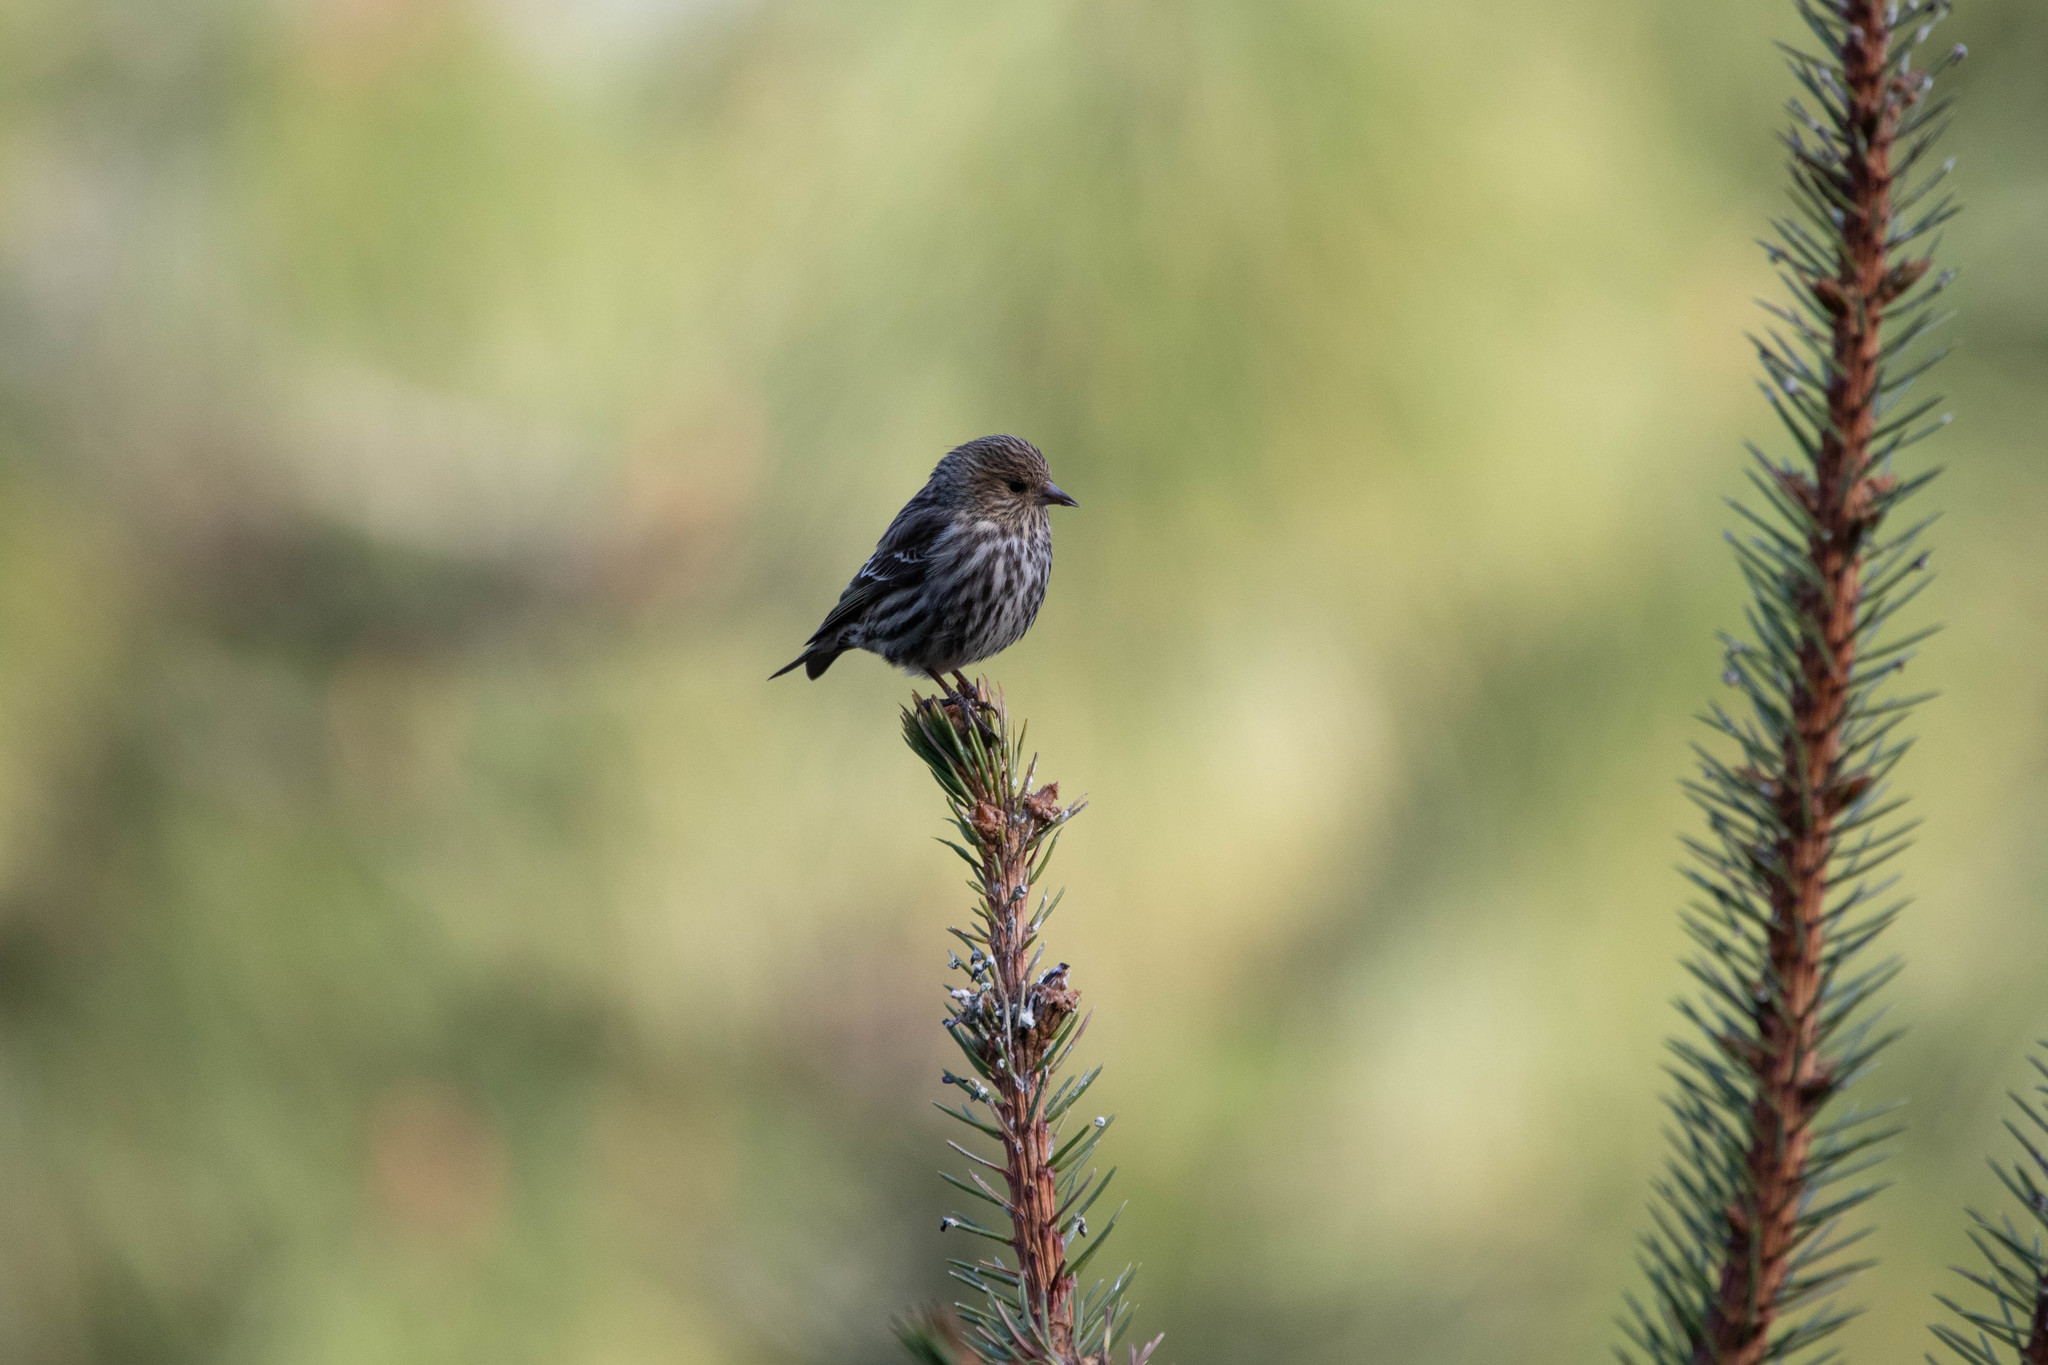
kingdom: Animalia
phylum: Chordata
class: Aves
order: Passeriformes
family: Fringillidae
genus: Spinus
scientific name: Spinus pinus
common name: Pine siskin
